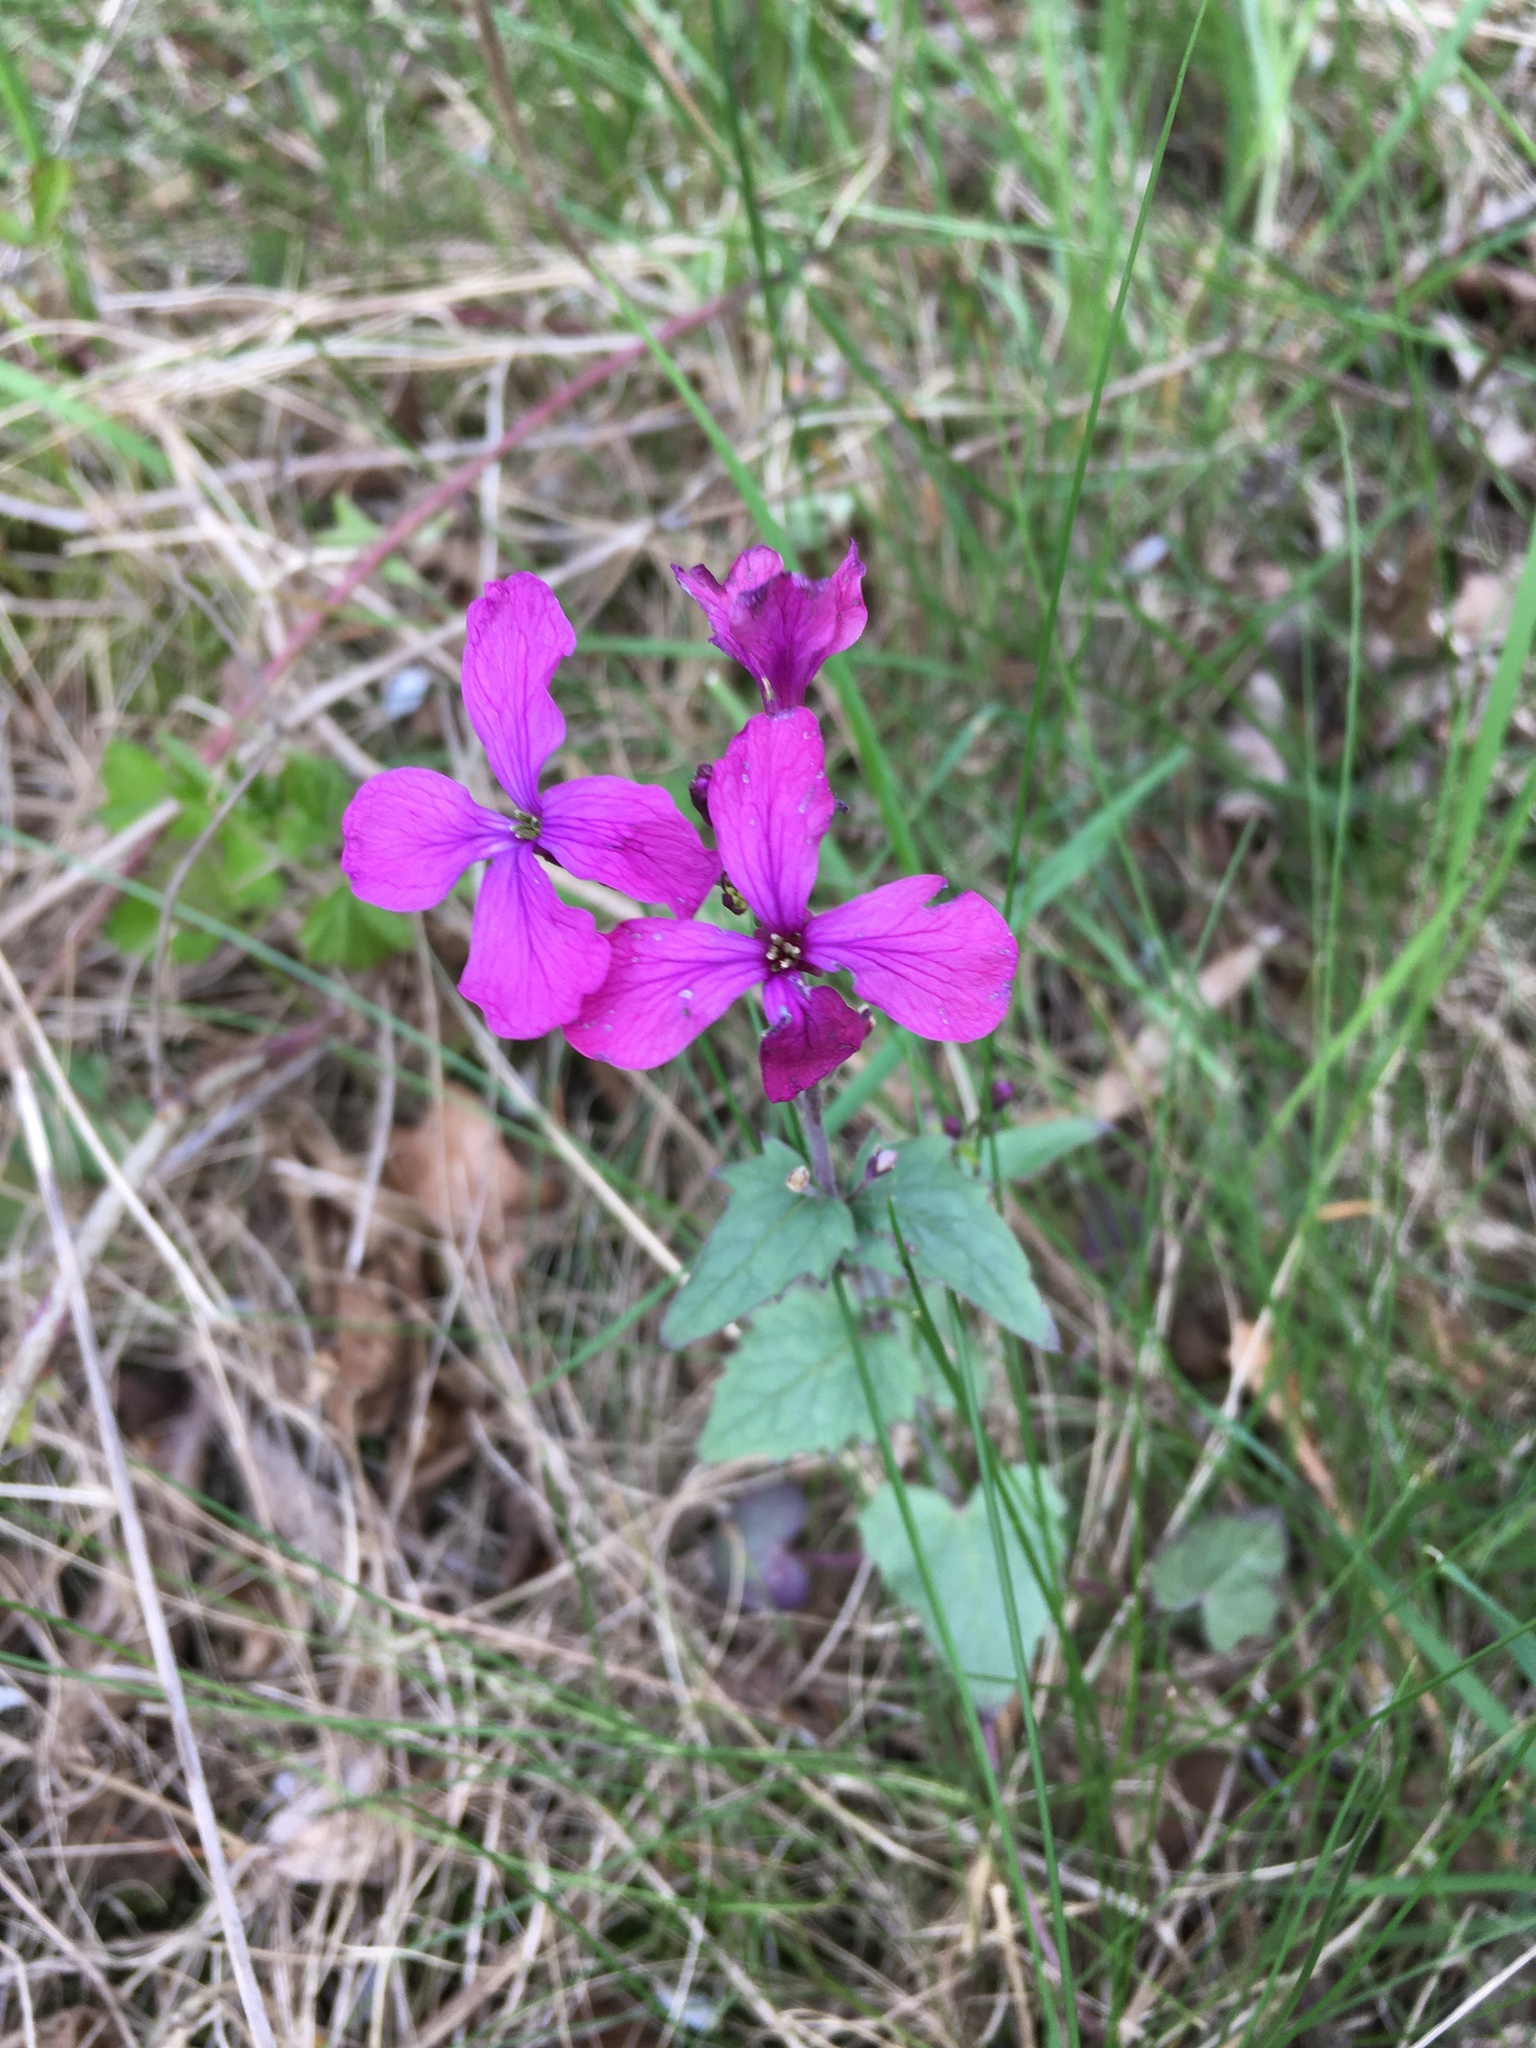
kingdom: Plantae
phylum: Tracheophyta
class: Magnoliopsida
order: Brassicales
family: Brassicaceae
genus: Lunaria
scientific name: Lunaria annua
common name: Honesty
